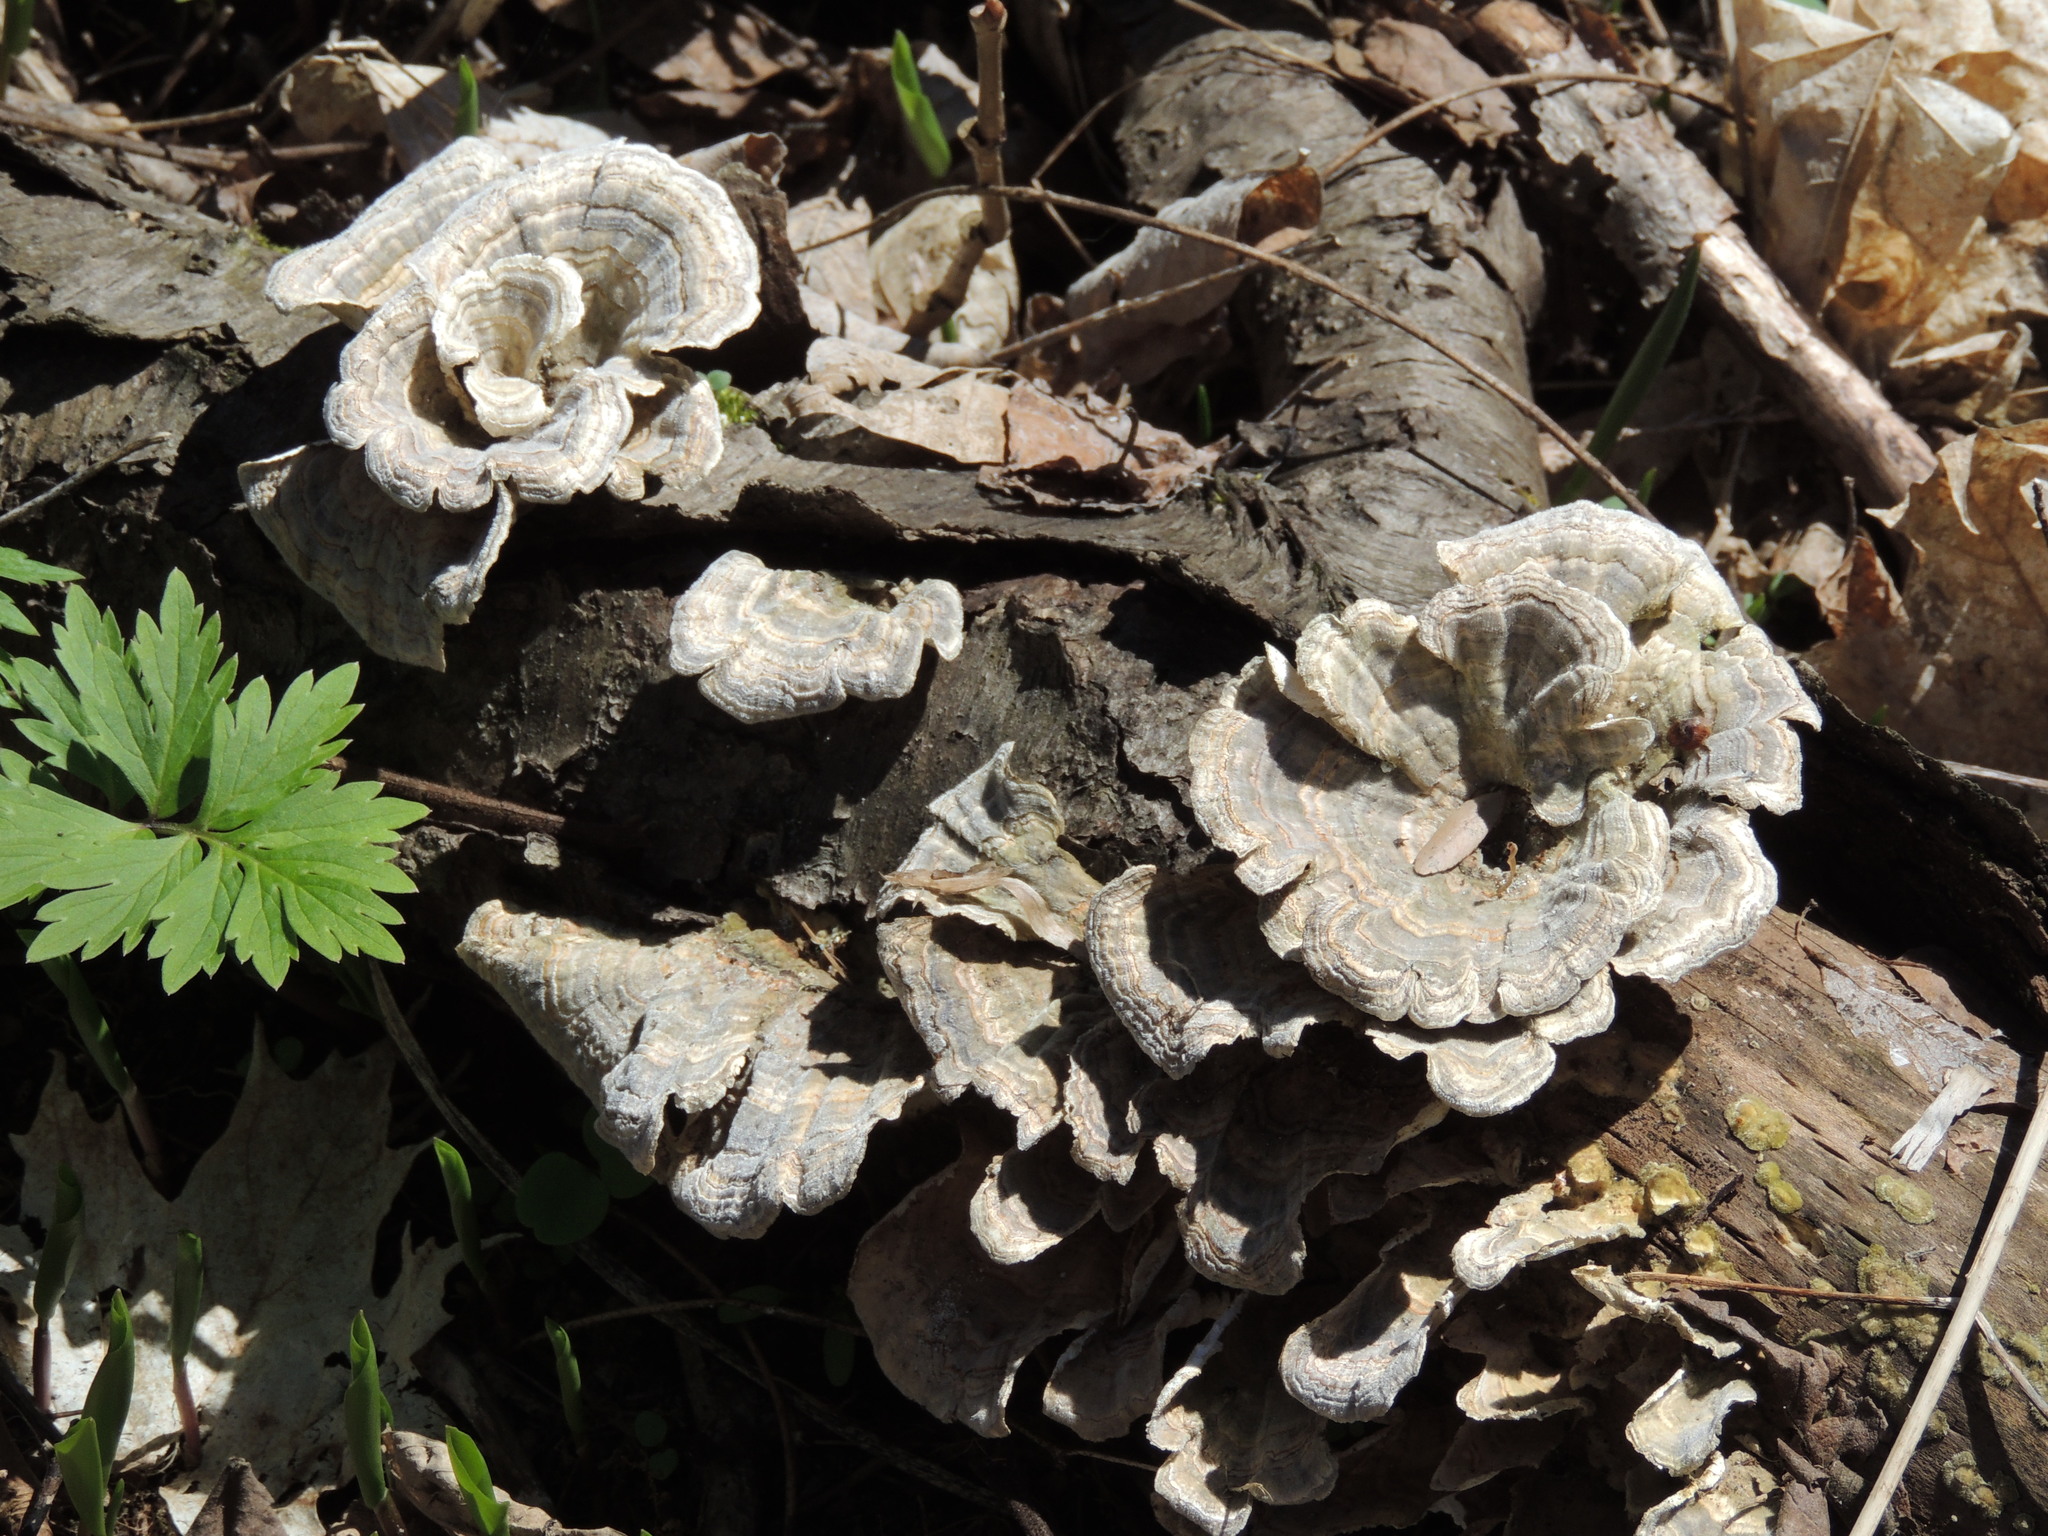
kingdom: Fungi
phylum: Basidiomycota
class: Agaricomycetes
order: Polyporales
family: Polyporaceae
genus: Trametes
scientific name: Trametes versicolor
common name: Turkeytail
